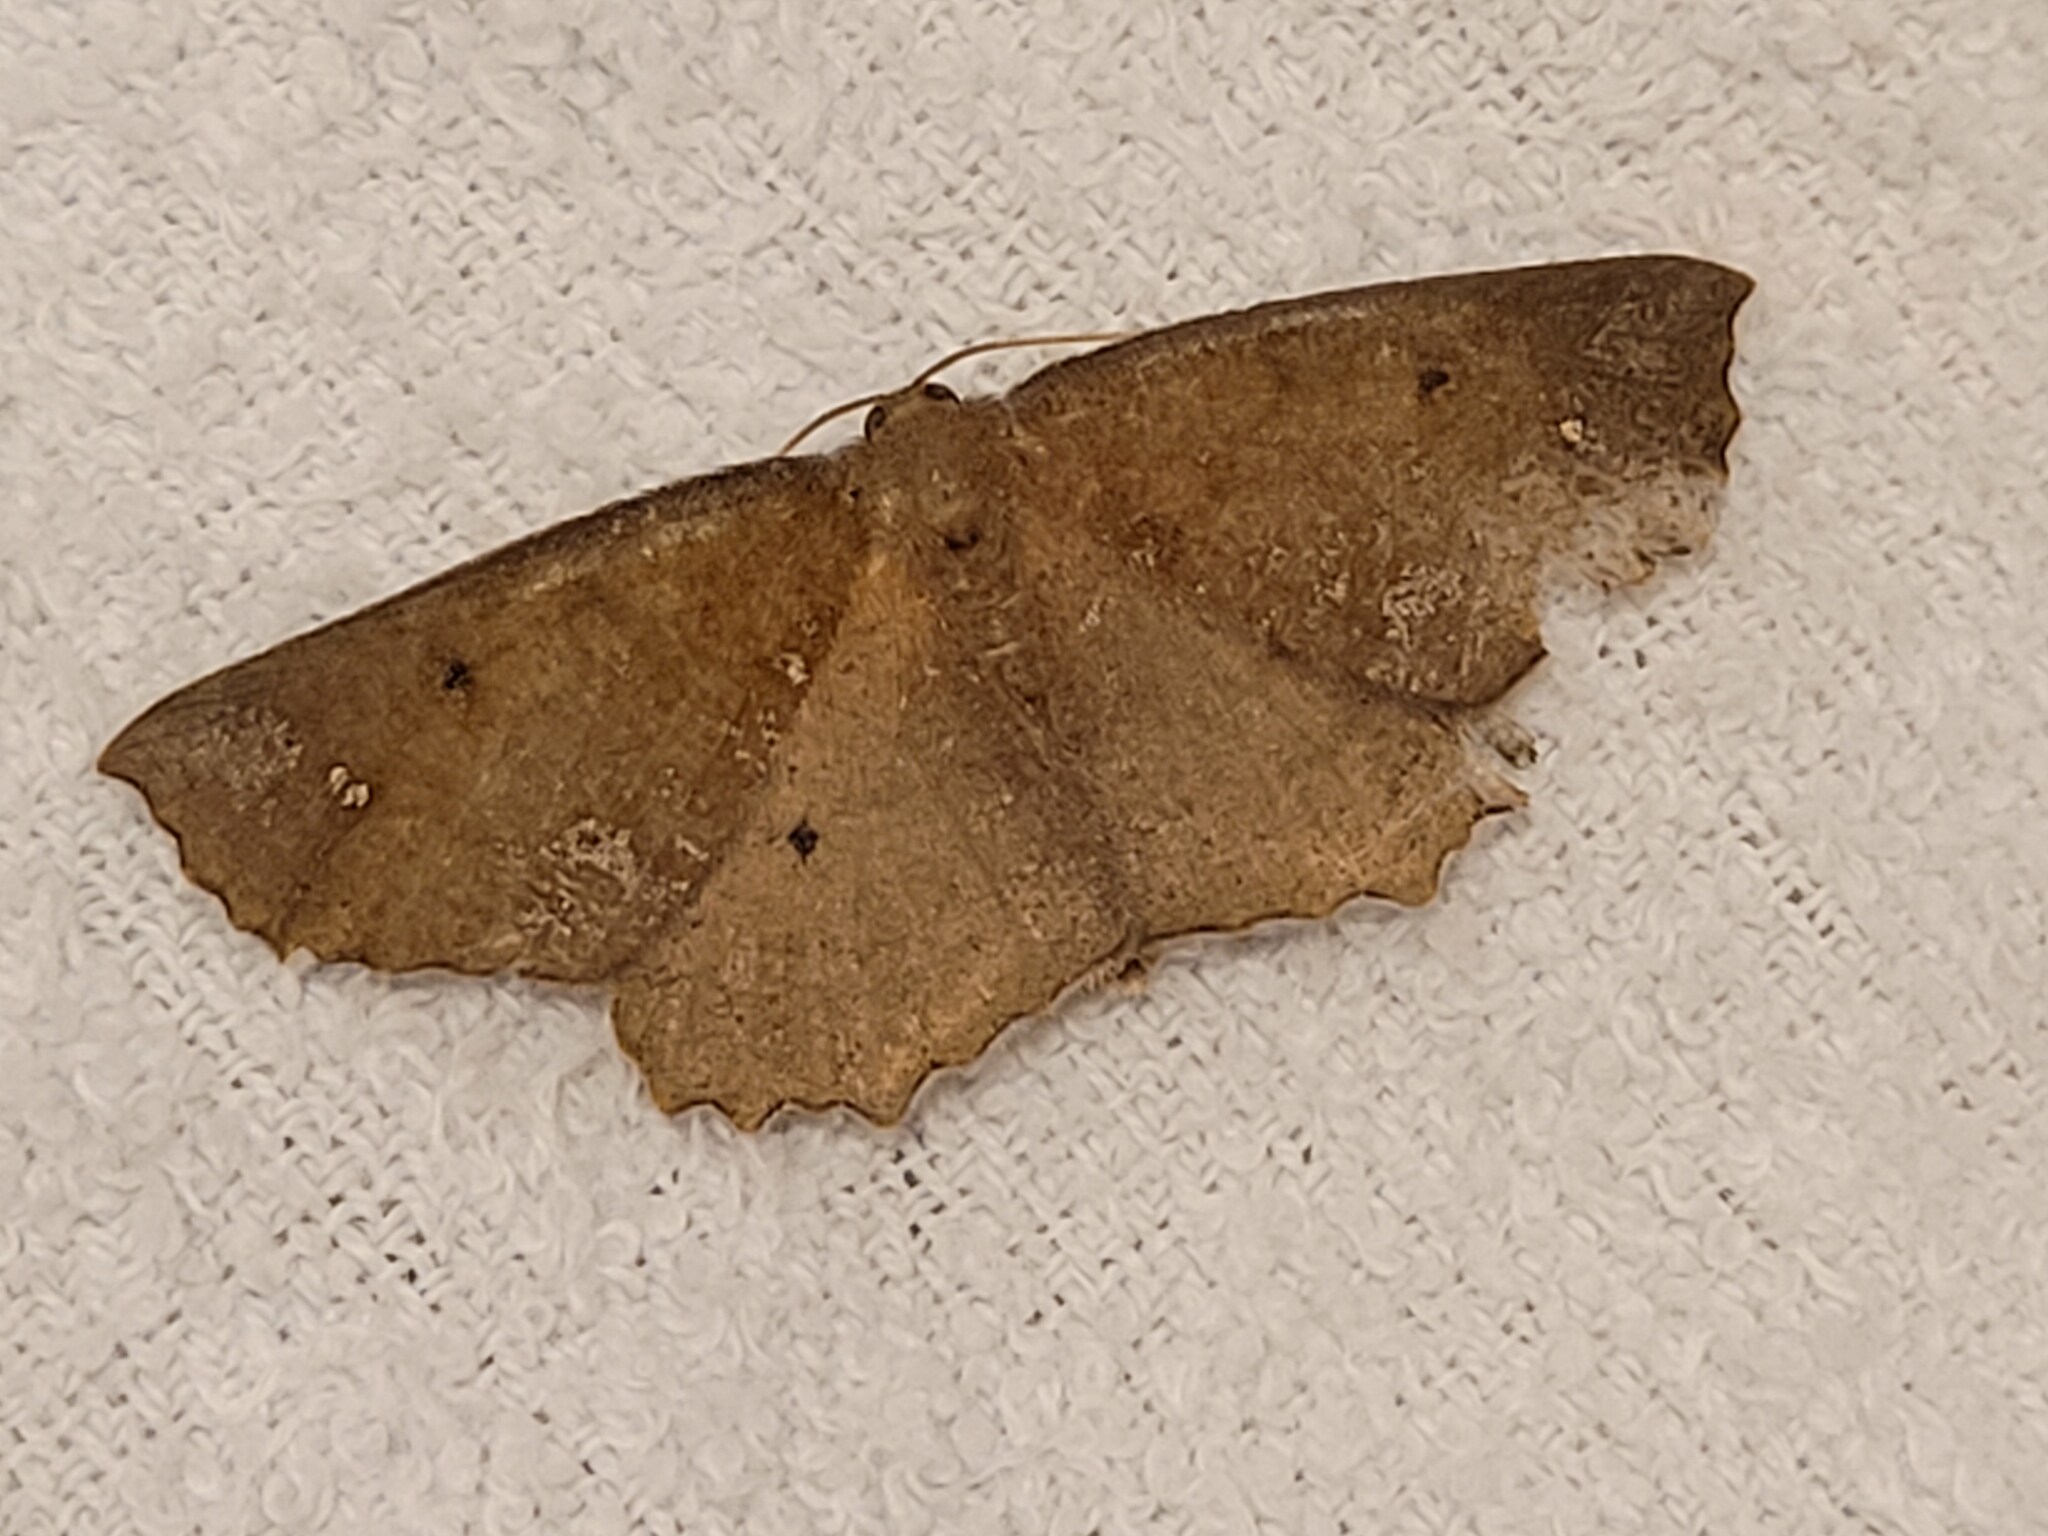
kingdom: Animalia
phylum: Arthropoda
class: Insecta
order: Lepidoptera
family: Geometridae
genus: Xyridacma
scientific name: Xyridacma ustaria
